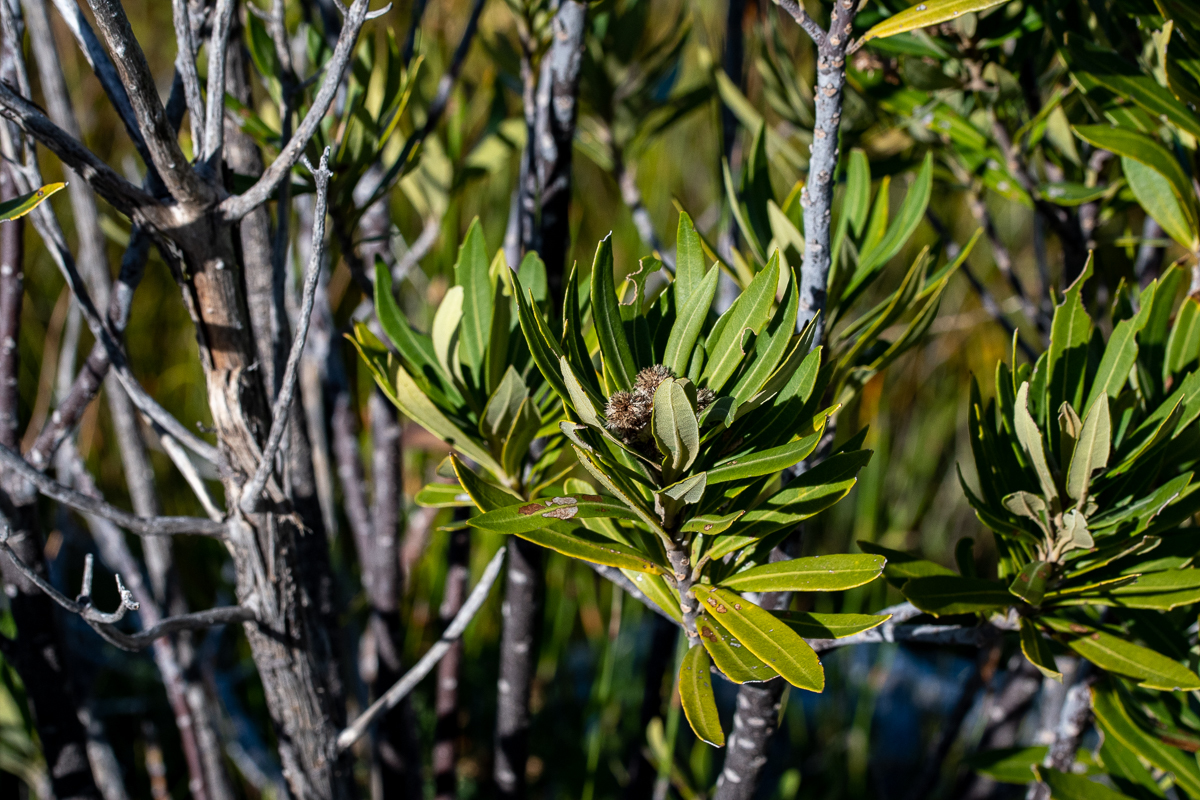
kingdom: Plantae
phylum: Tracheophyta
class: Magnoliopsida
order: Asterales
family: Asteraceae
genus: Brachylaena
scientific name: Brachylaena neriifolia
